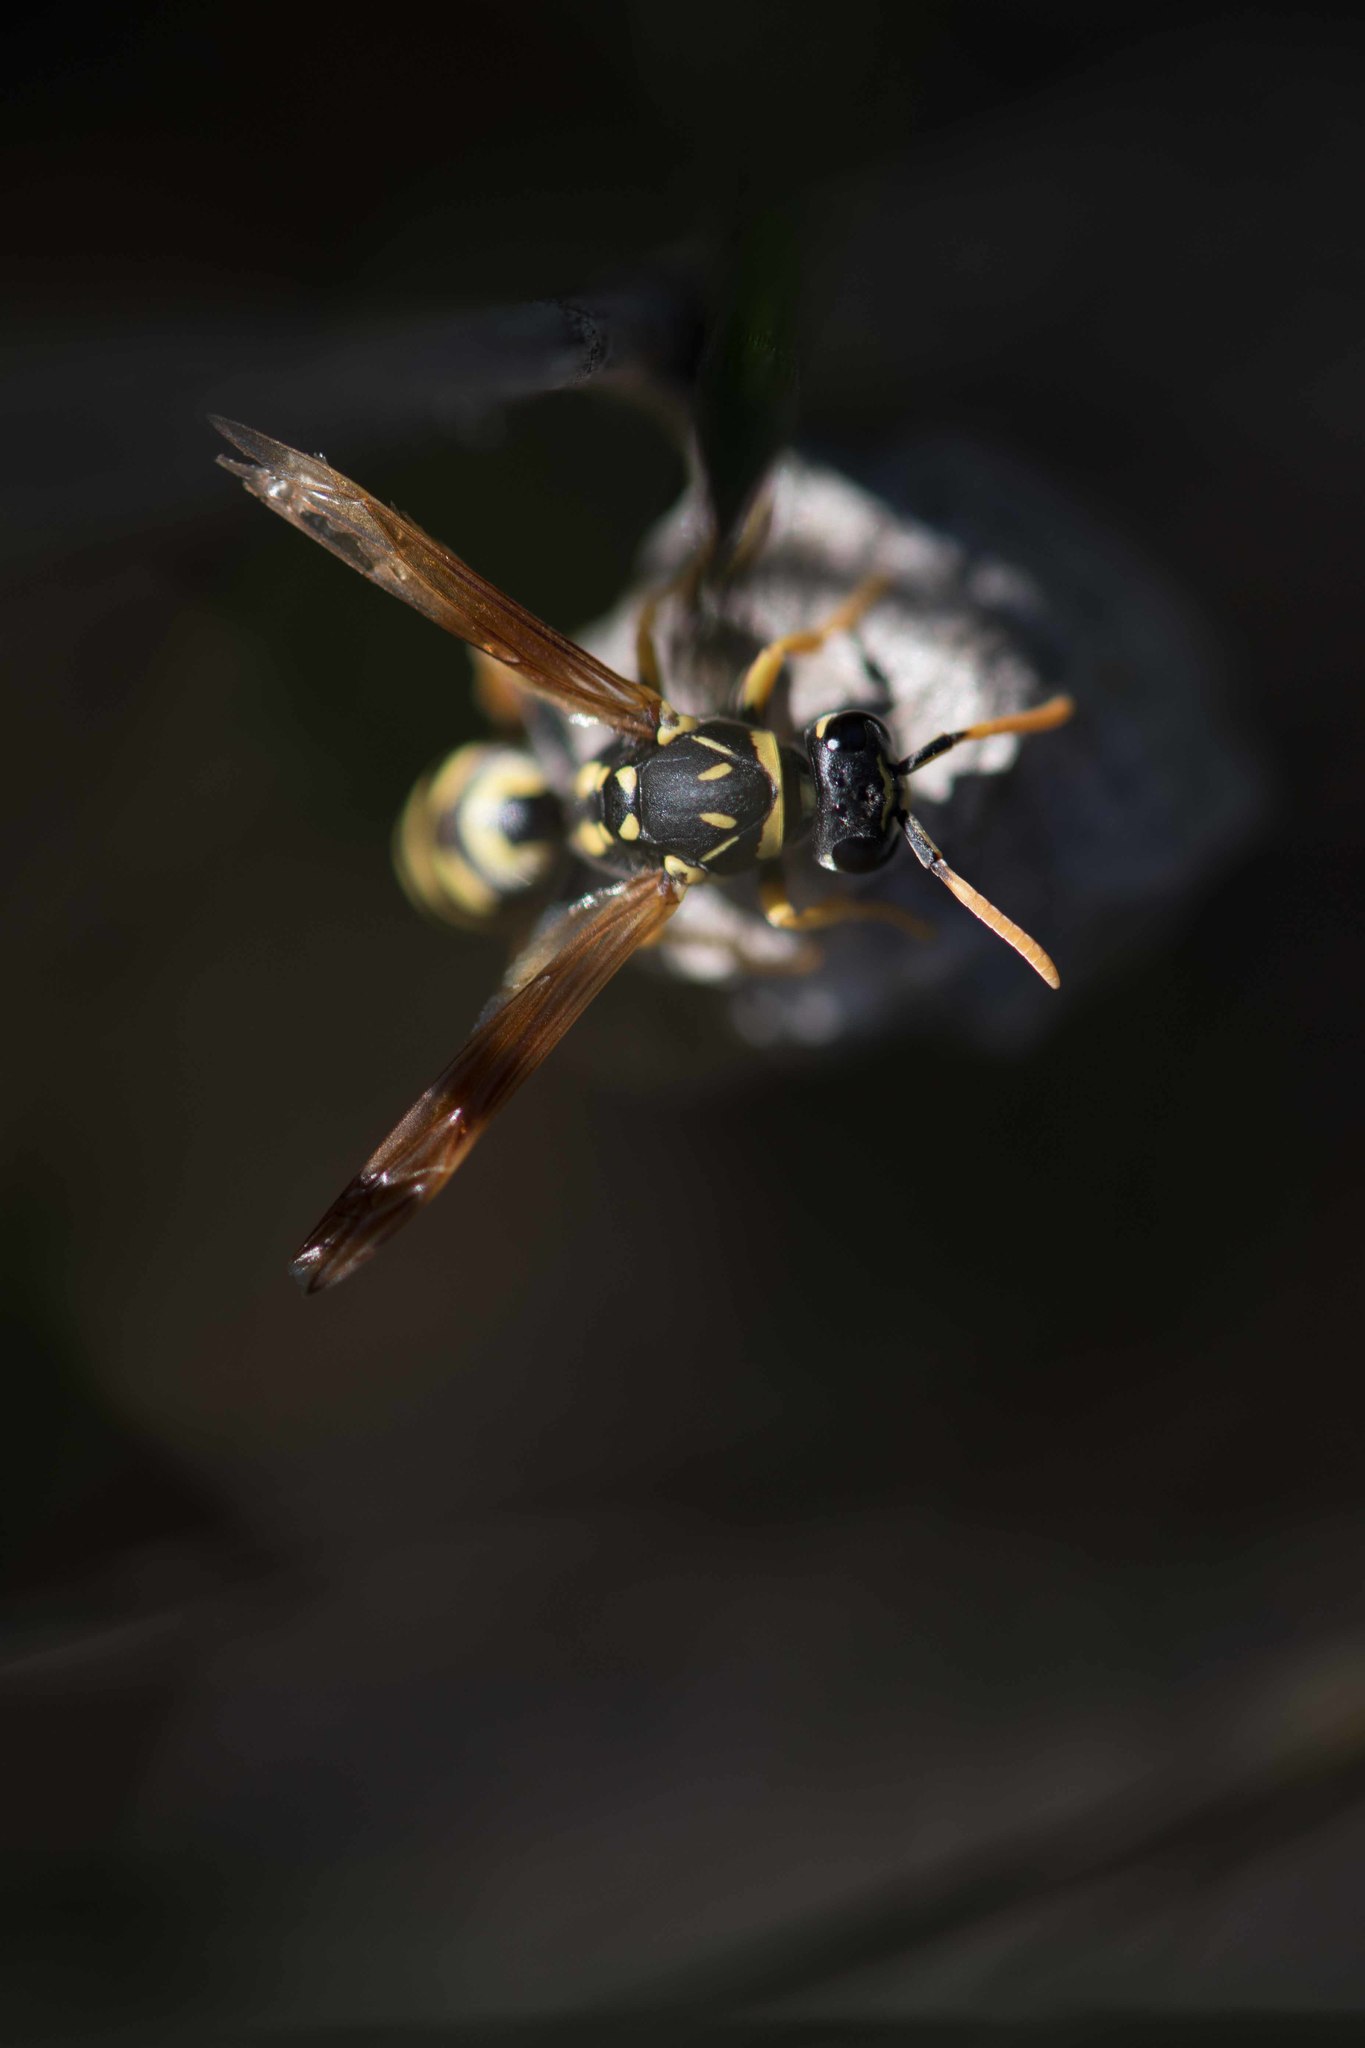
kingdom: Animalia
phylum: Arthropoda
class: Insecta
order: Hymenoptera
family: Eumenidae
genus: Polistes
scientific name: Polistes gallicus
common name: Paper wasp
